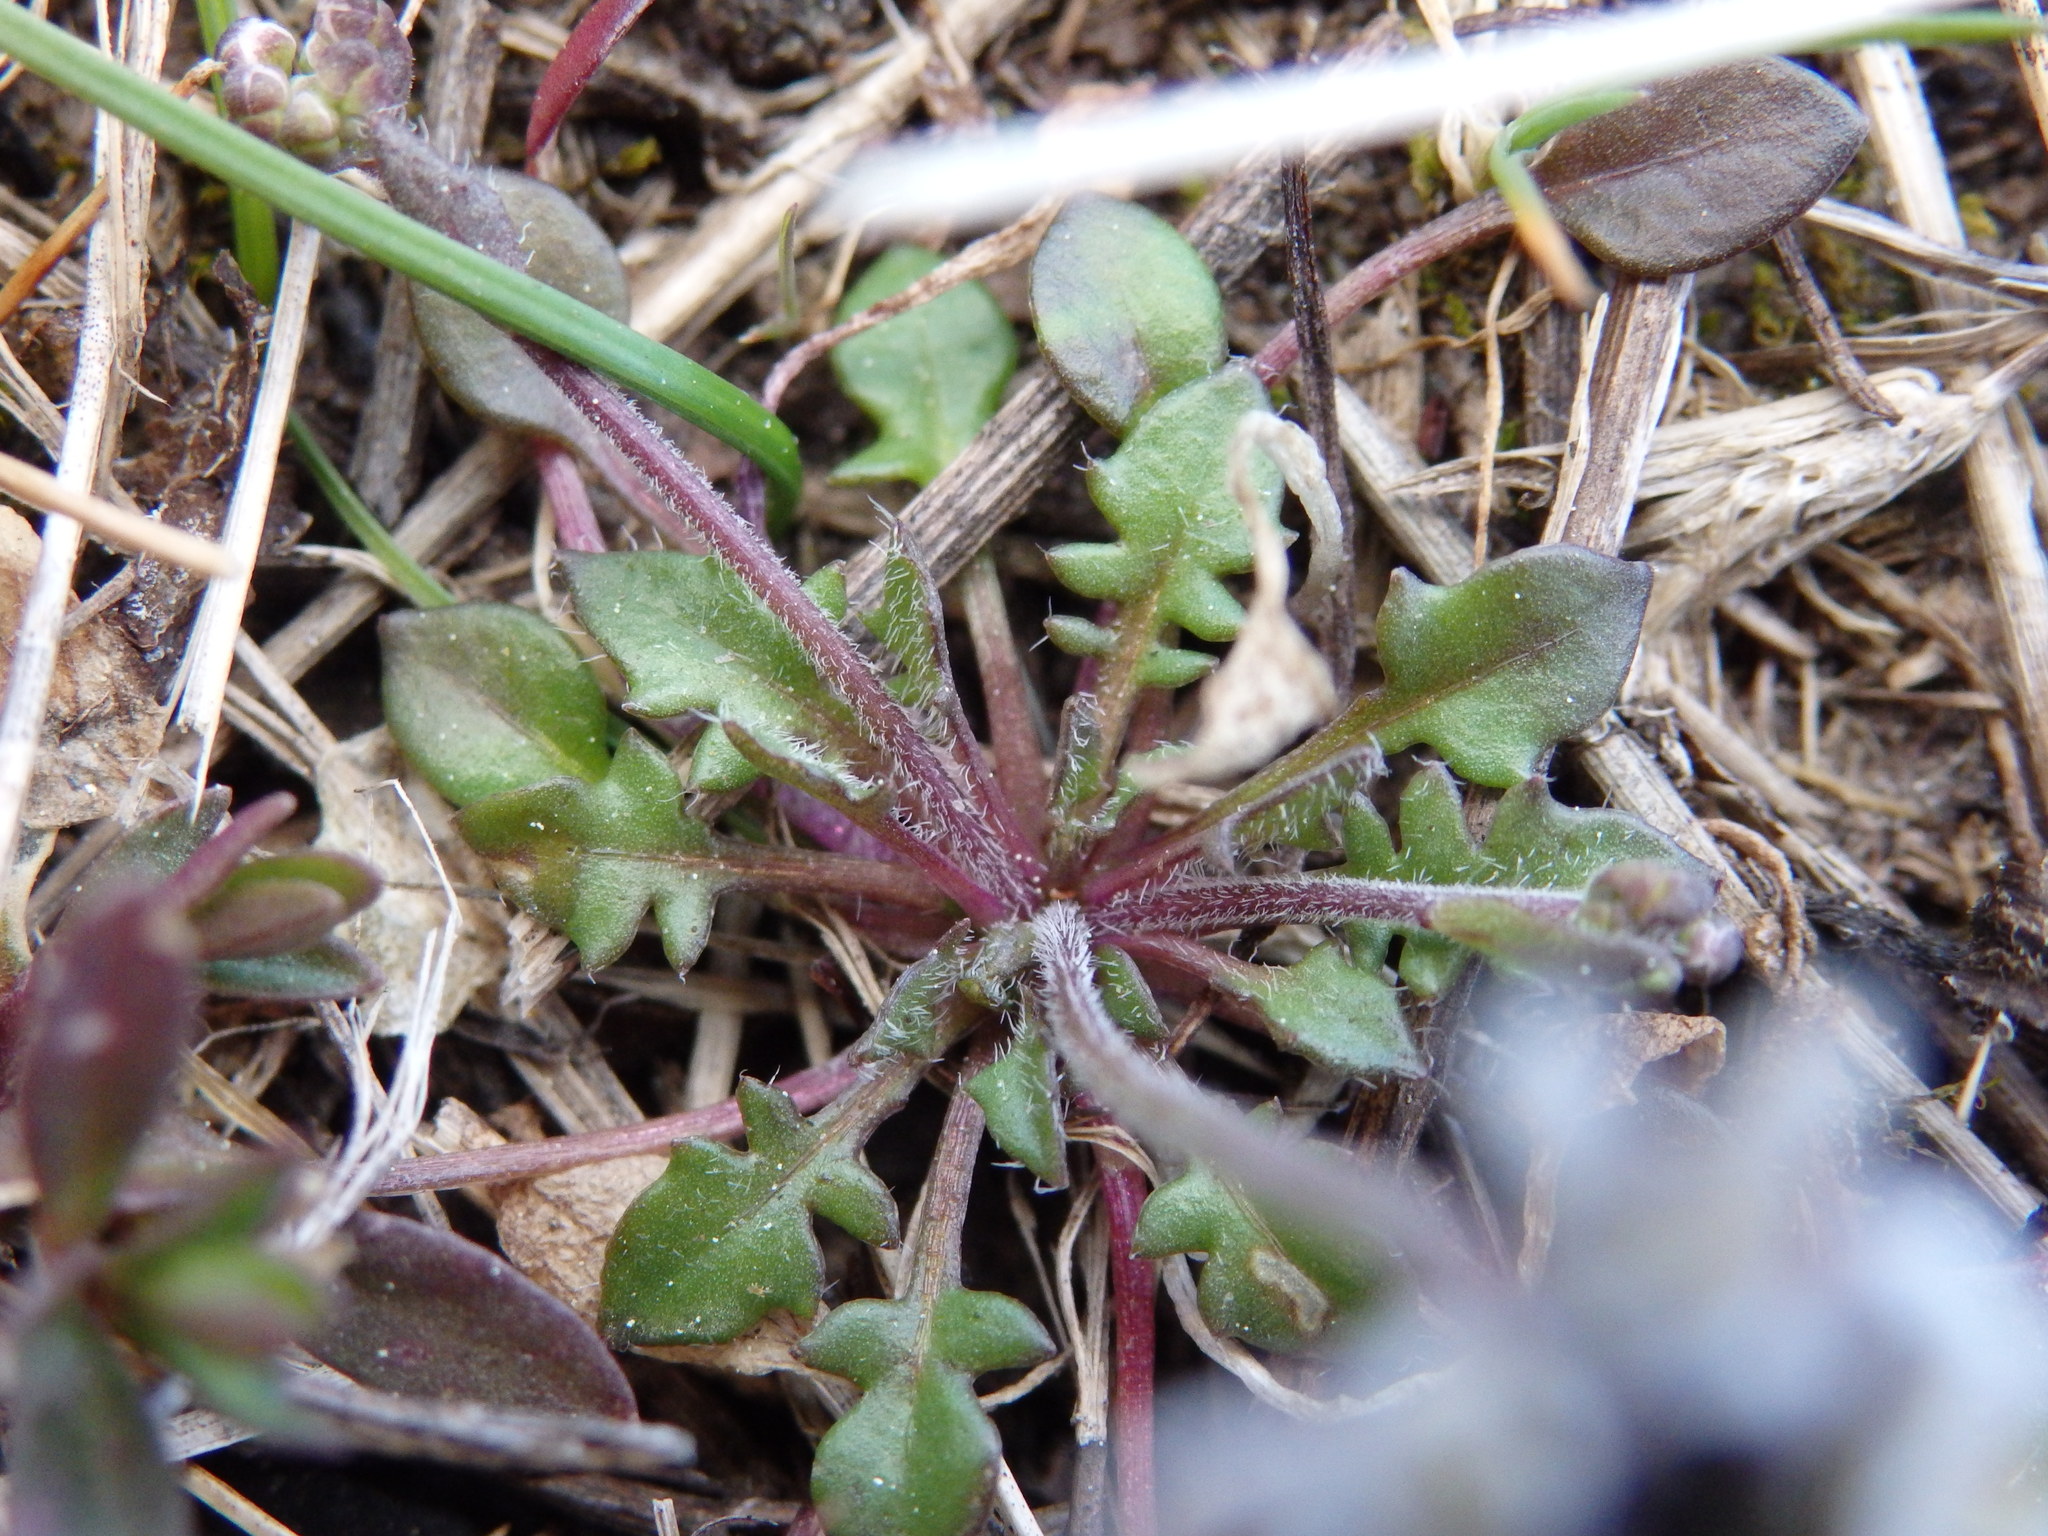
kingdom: Plantae
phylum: Tracheophyta
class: Magnoliopsida
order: Brassicales
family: Brassicaceae
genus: Teesdalia
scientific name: Teesdalia nudicaulis
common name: Shepherd's cress
